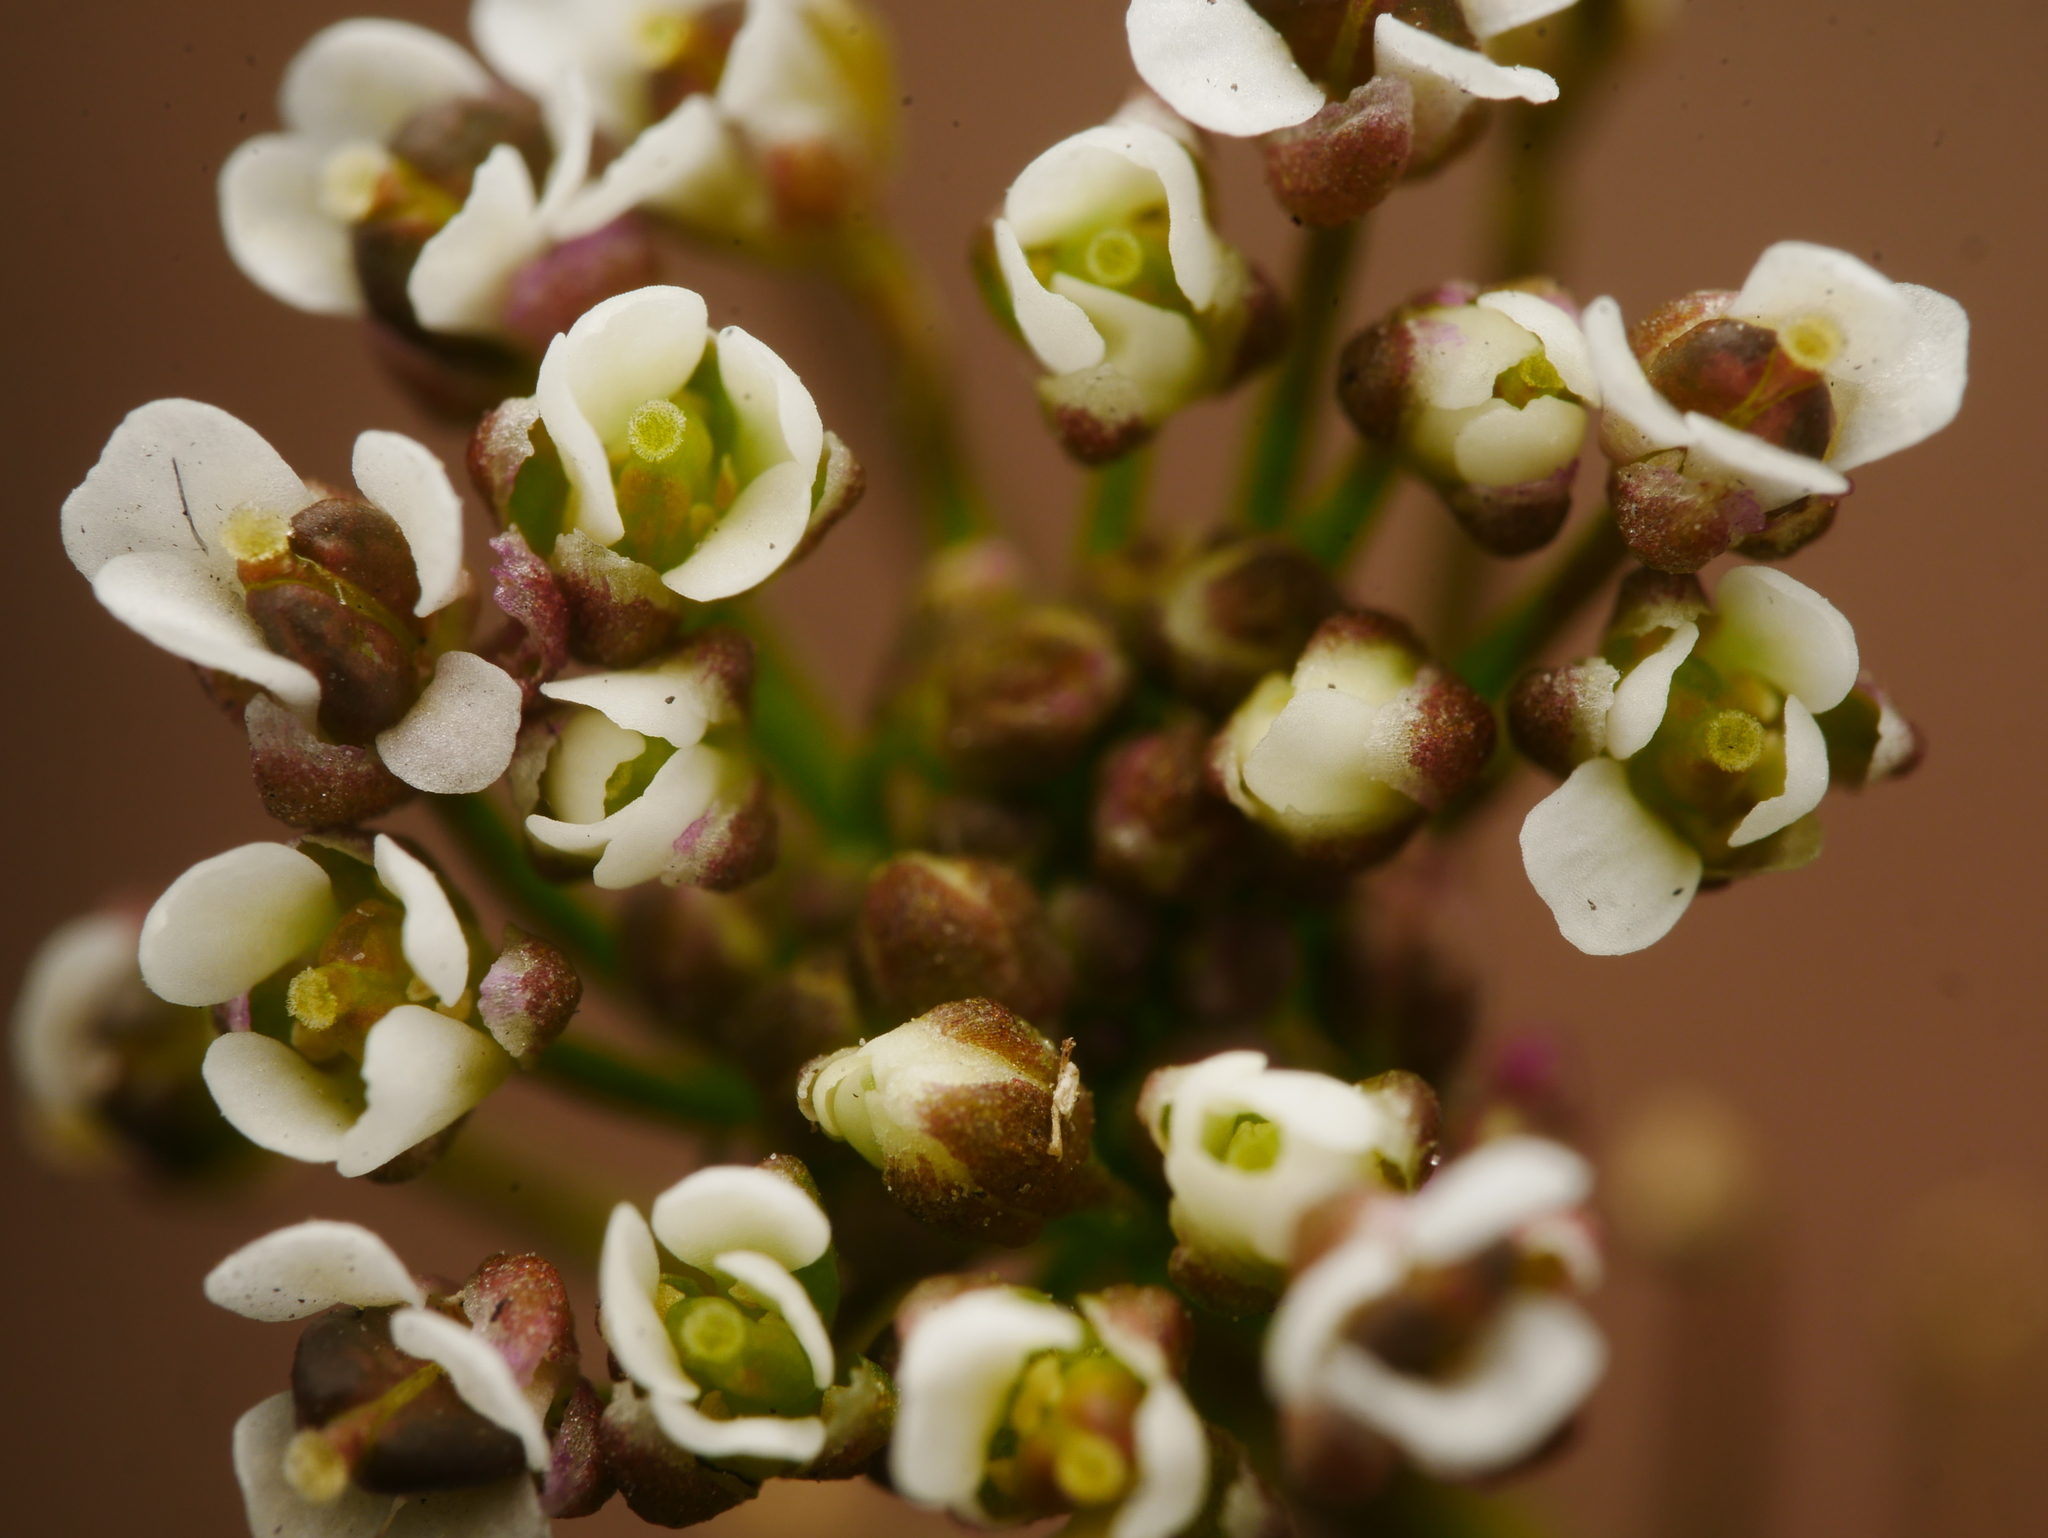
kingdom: Plantae
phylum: Tracheophyta
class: Magnoliopsida
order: Brassicales
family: Brassicaceae
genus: Capsella
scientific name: Capsella bursa-pastoris
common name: Shepherd's purse
